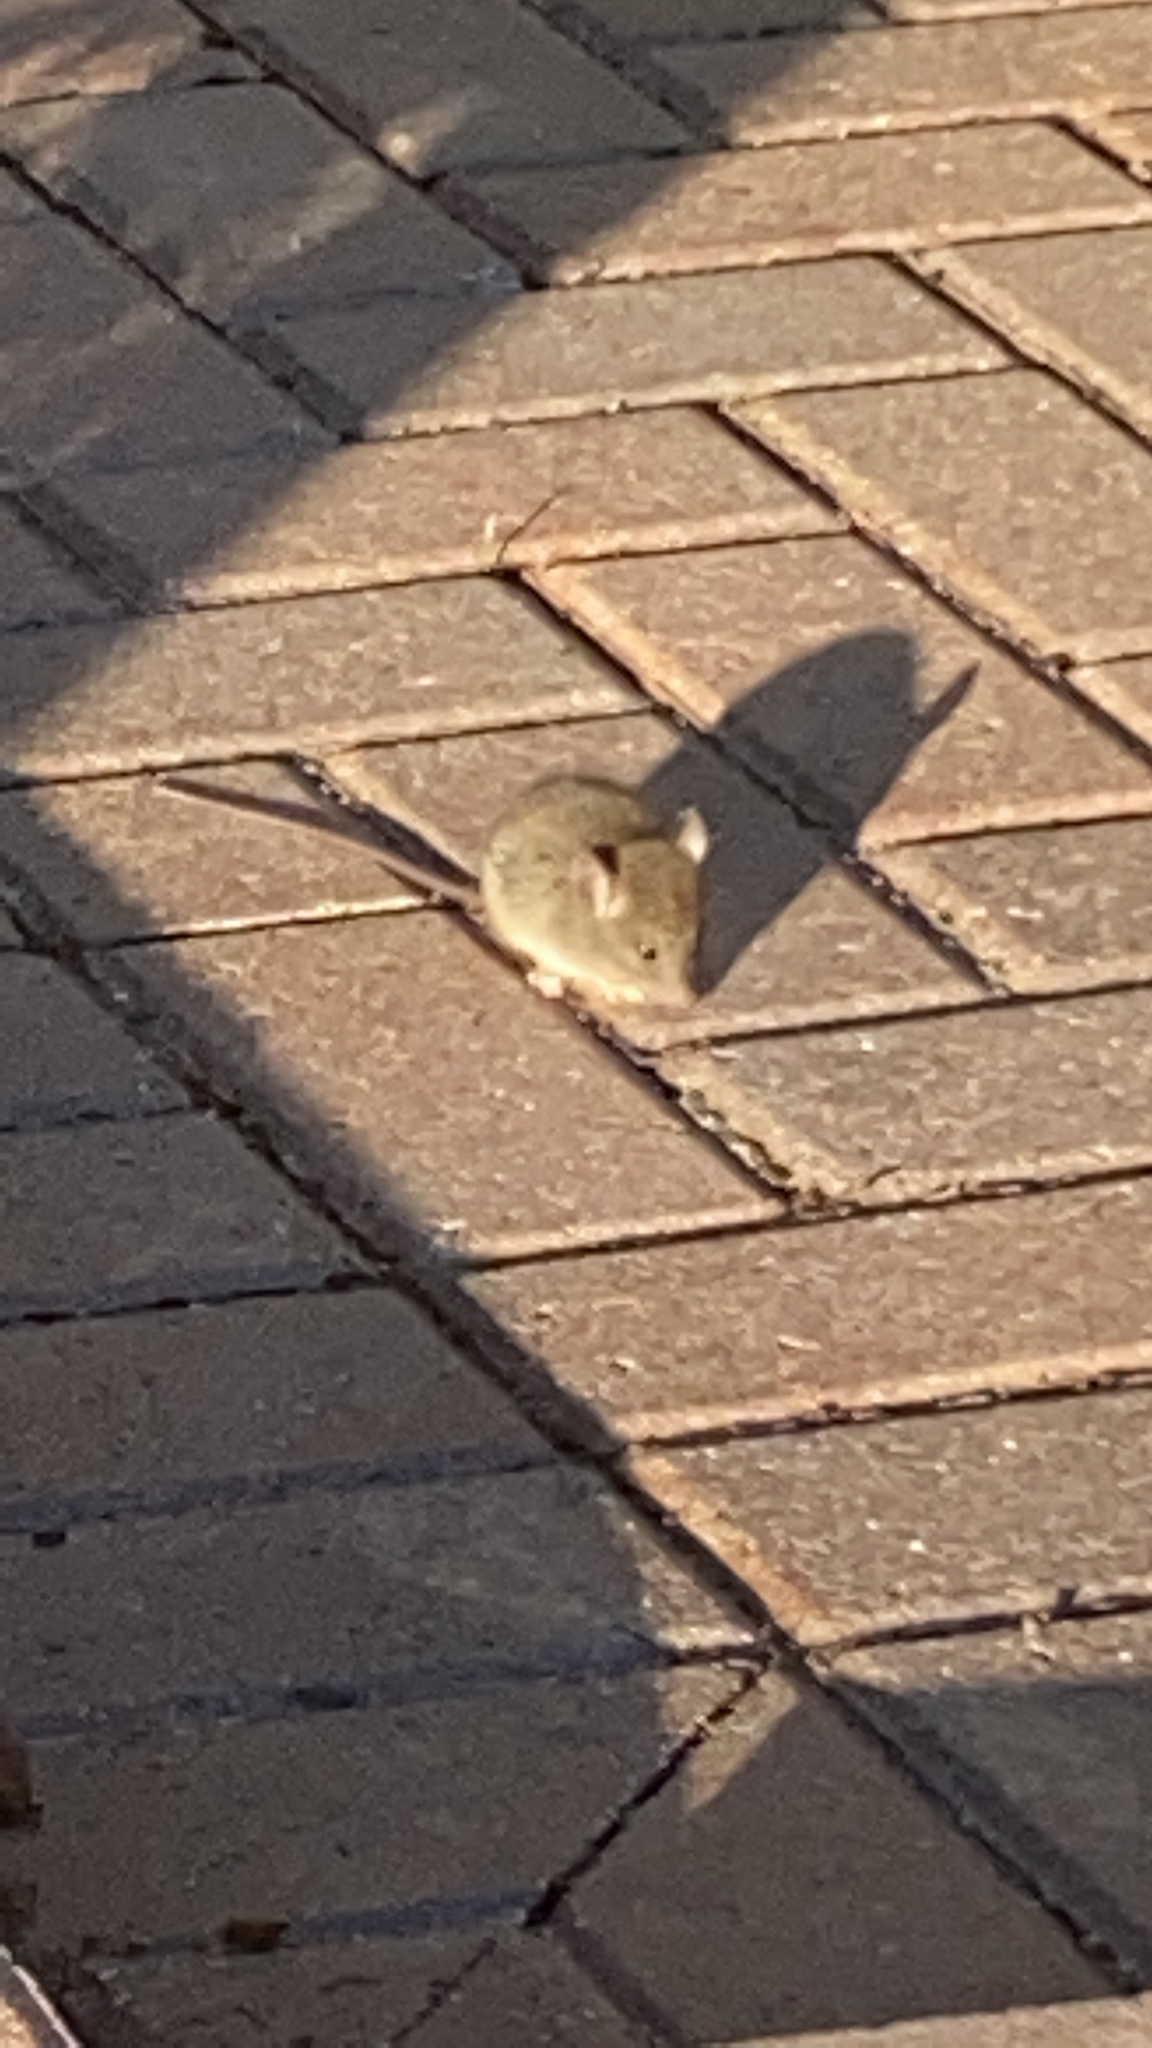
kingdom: Animalia
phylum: Chordata
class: Mammalia
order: Rodentia
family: Muridae
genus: Mus
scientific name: Mus musculus
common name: House mouse
